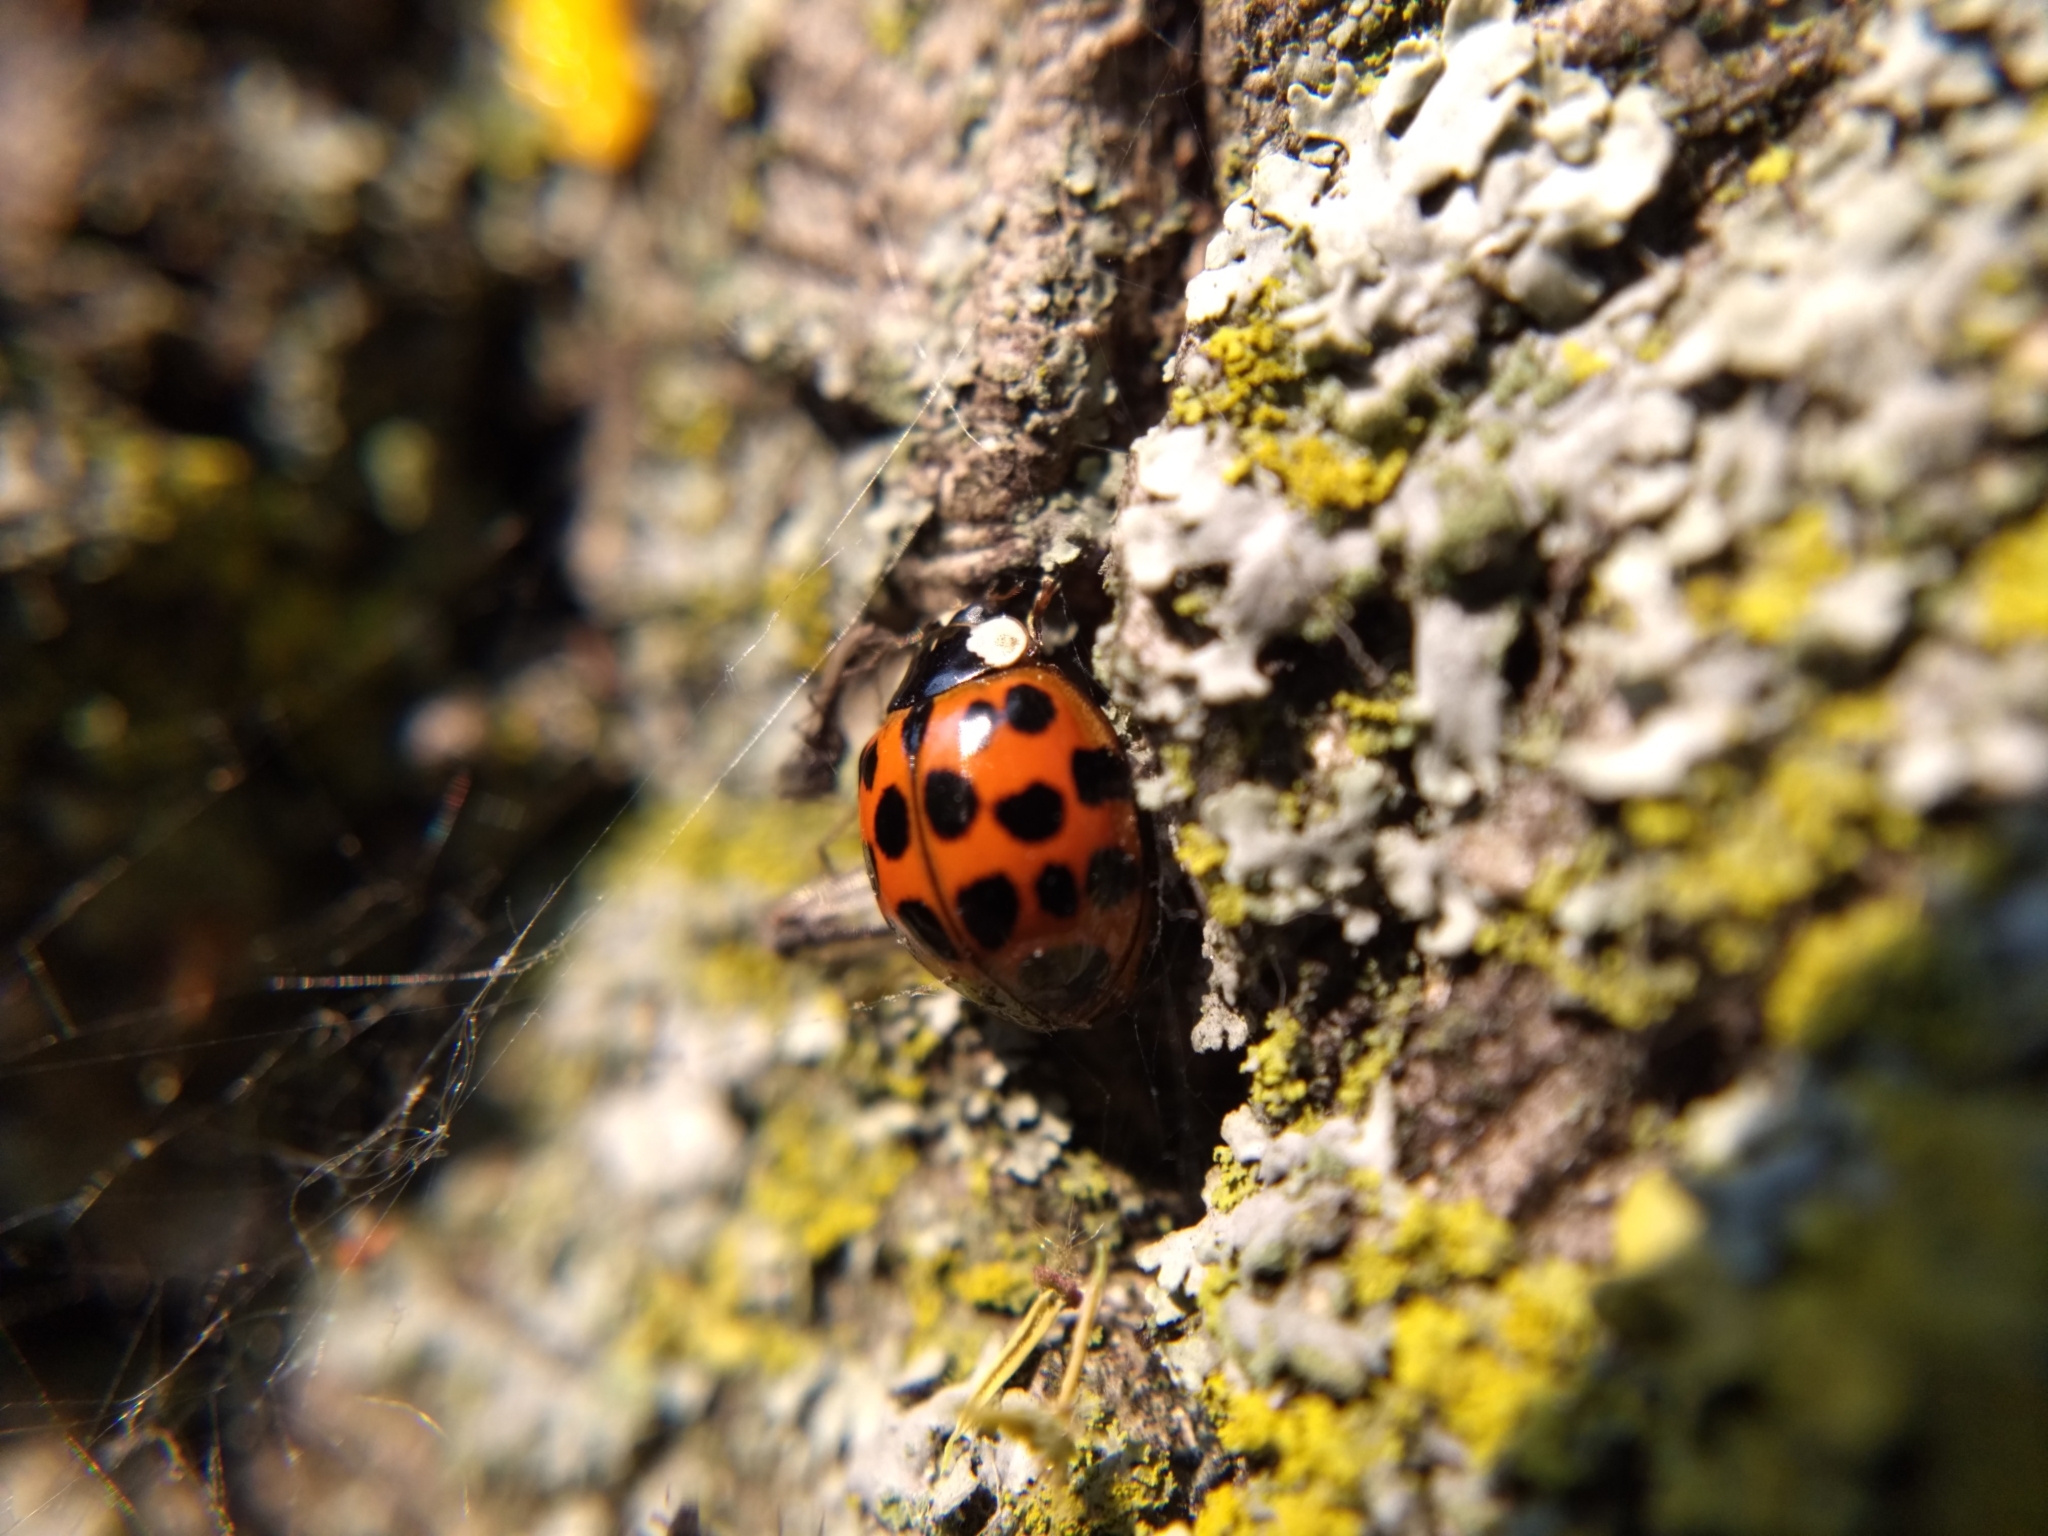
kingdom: Animalia
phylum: Arthropoda
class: Insecta
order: Coleoptera
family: Coccinellidae
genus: Harmonia
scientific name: Harmonia axyridis
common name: Harlequin ladybird
